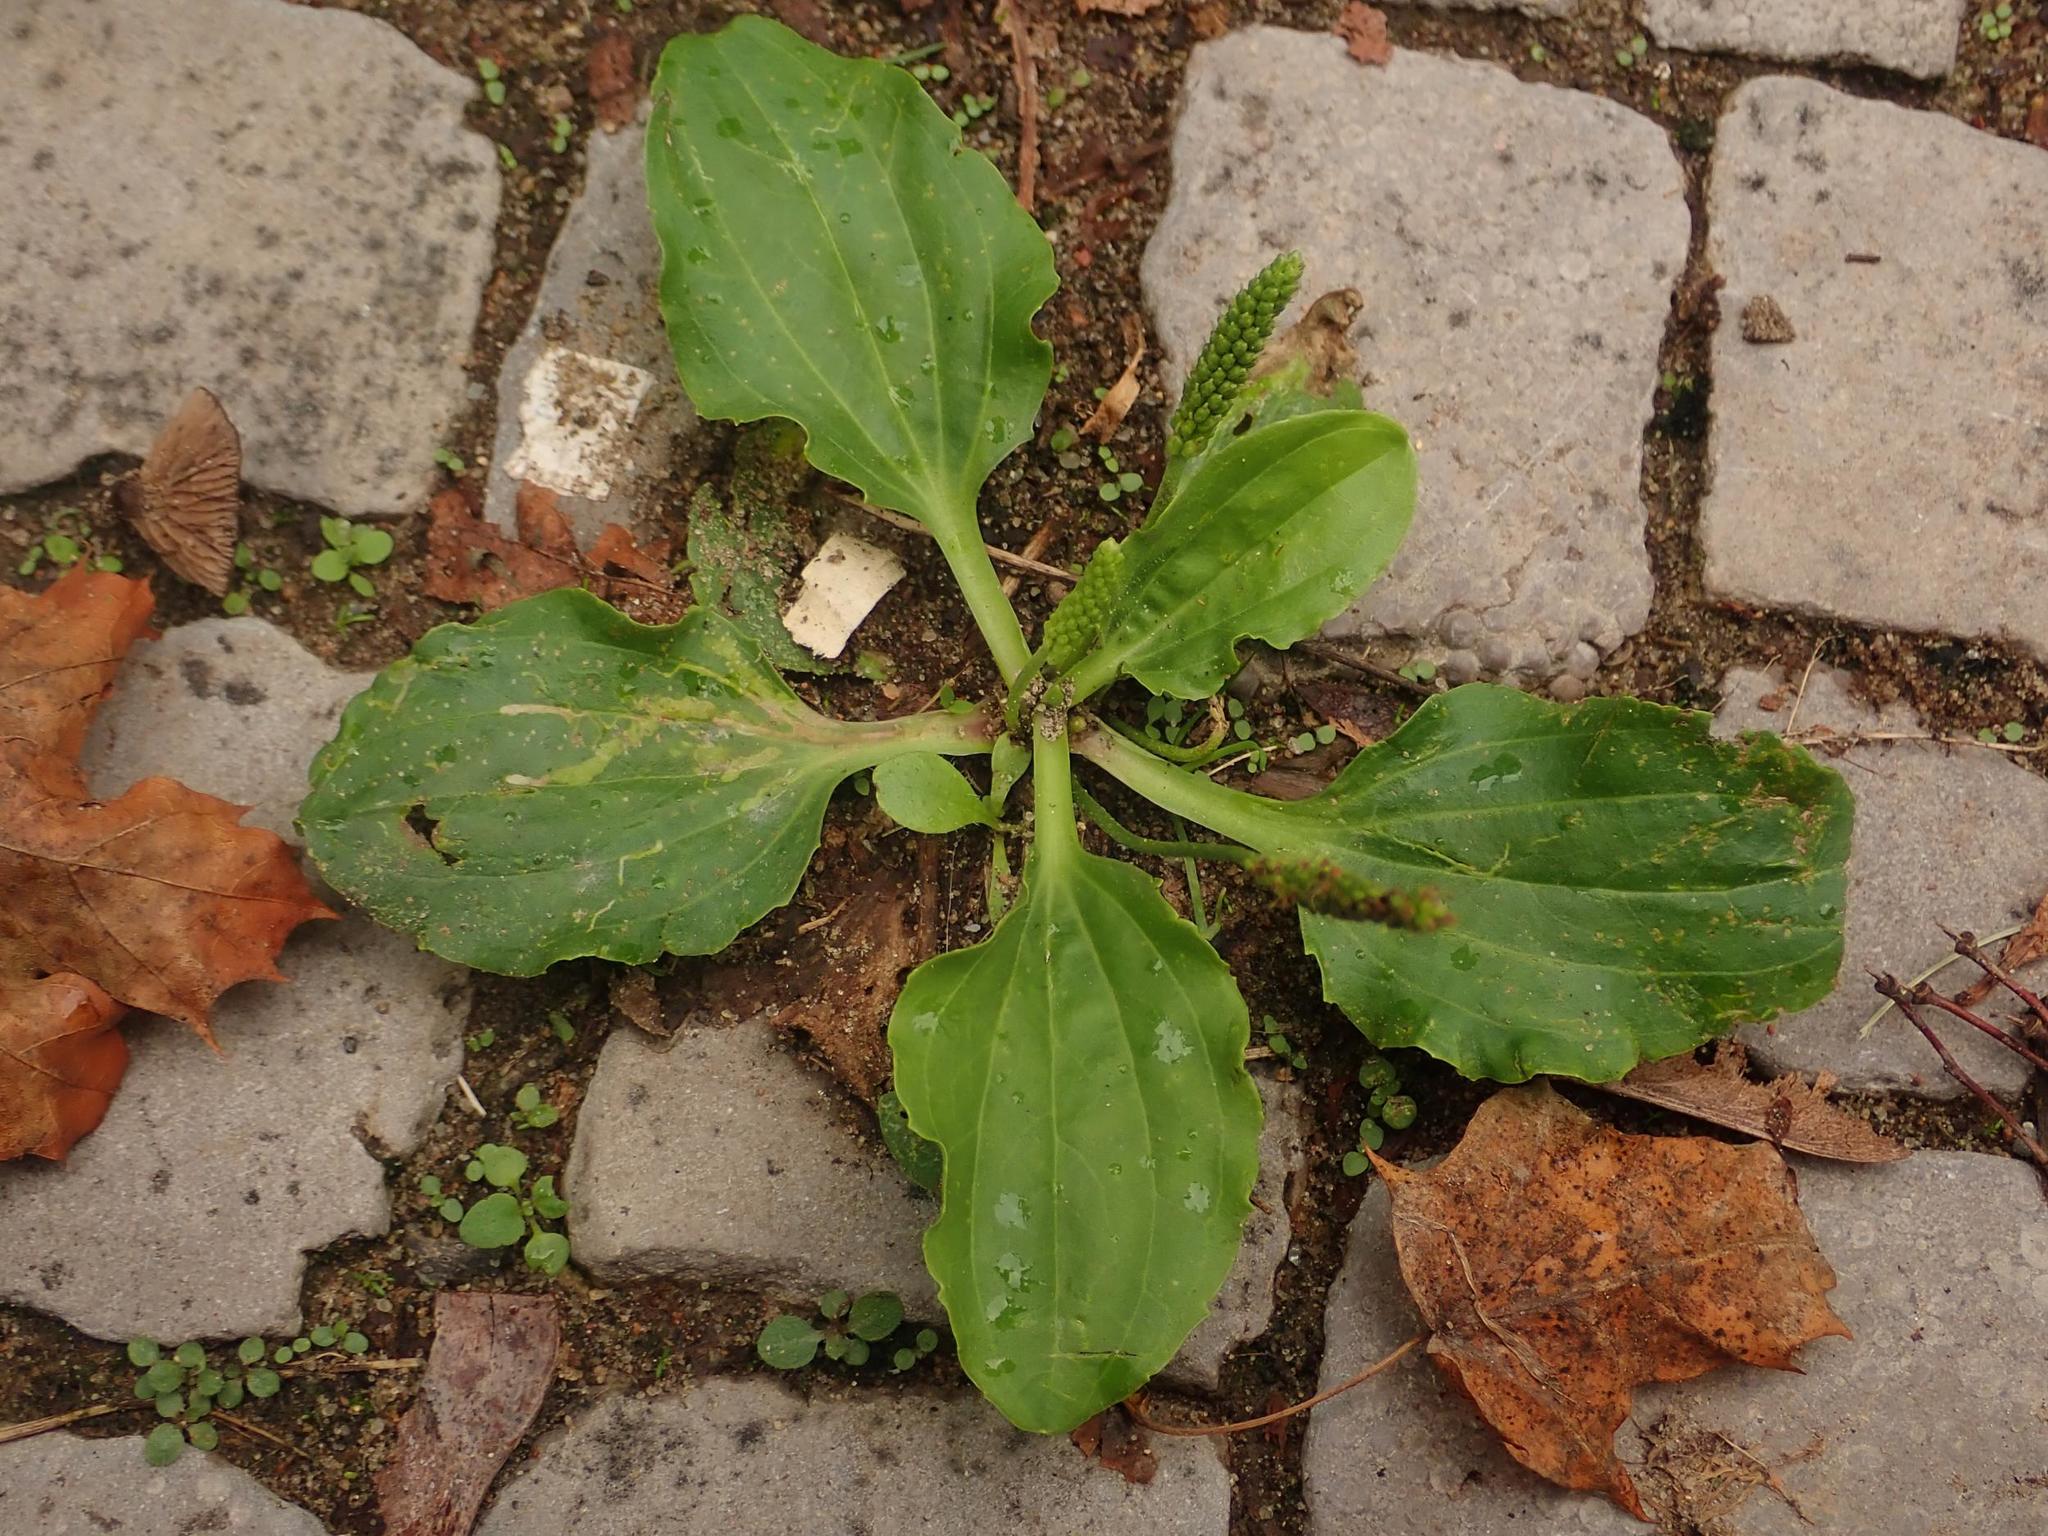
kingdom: Plantae
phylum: Tracheophyta
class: Magnoliopsida
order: Lamiales
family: Plantaginaceae
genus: Plantago
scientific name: Plantago major
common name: Common plantain
